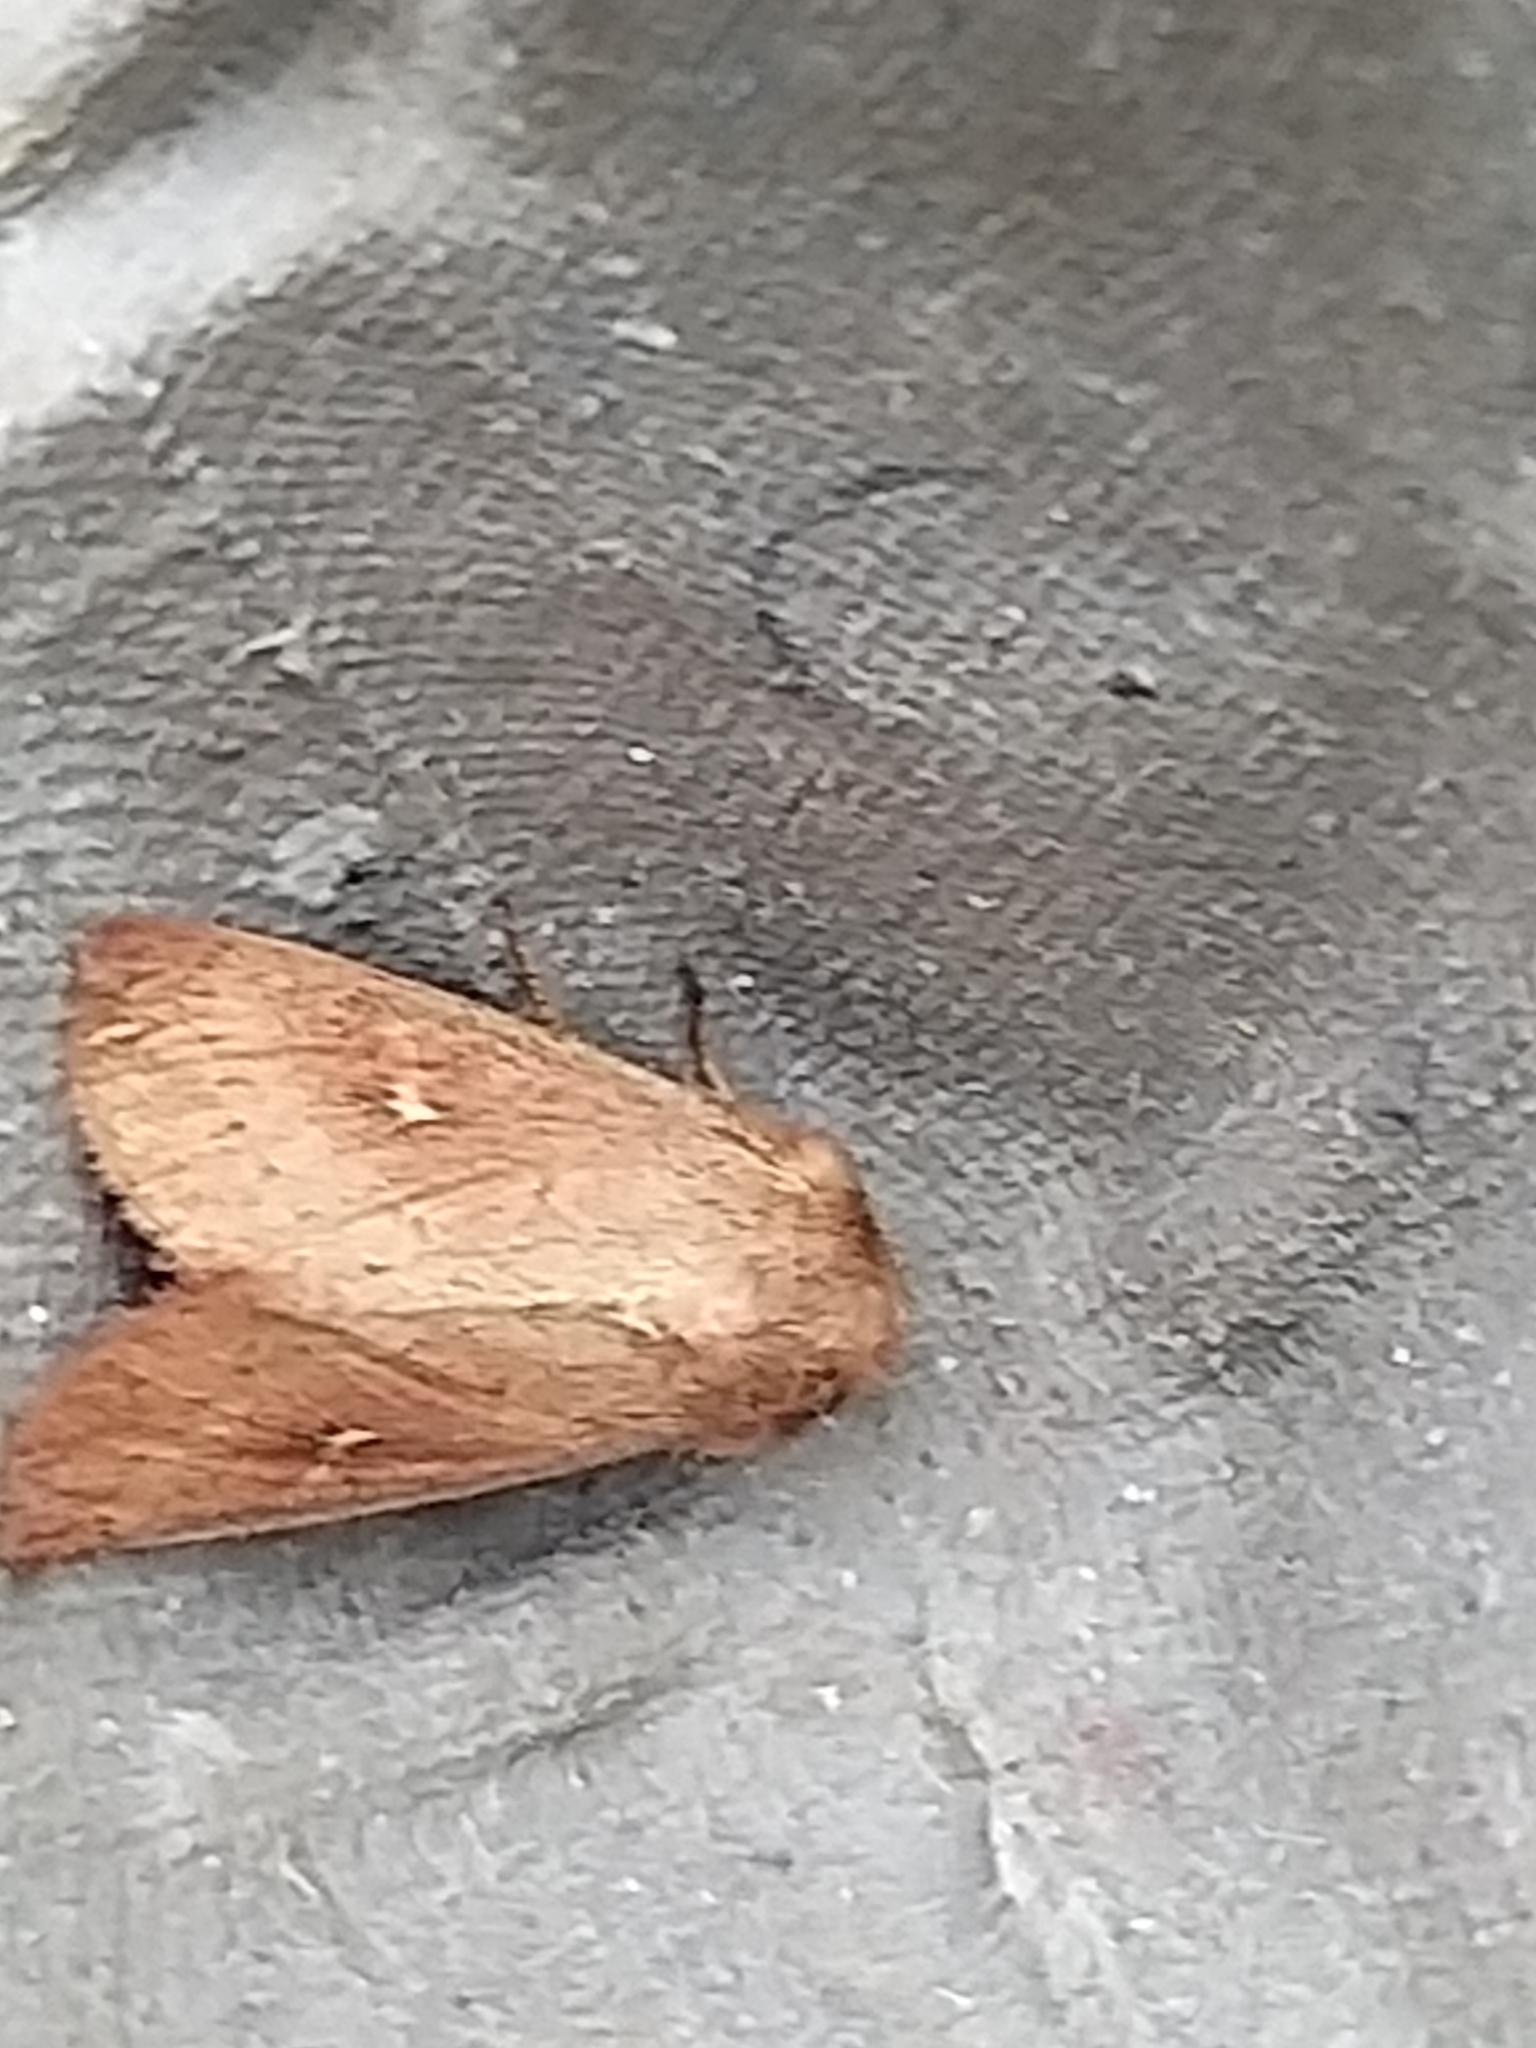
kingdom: Animalia
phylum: Arthropoda
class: Insecta
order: Lepidoptera
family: Noctuidae
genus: Mythimna
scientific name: Mythimna ferrago
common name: Clay
